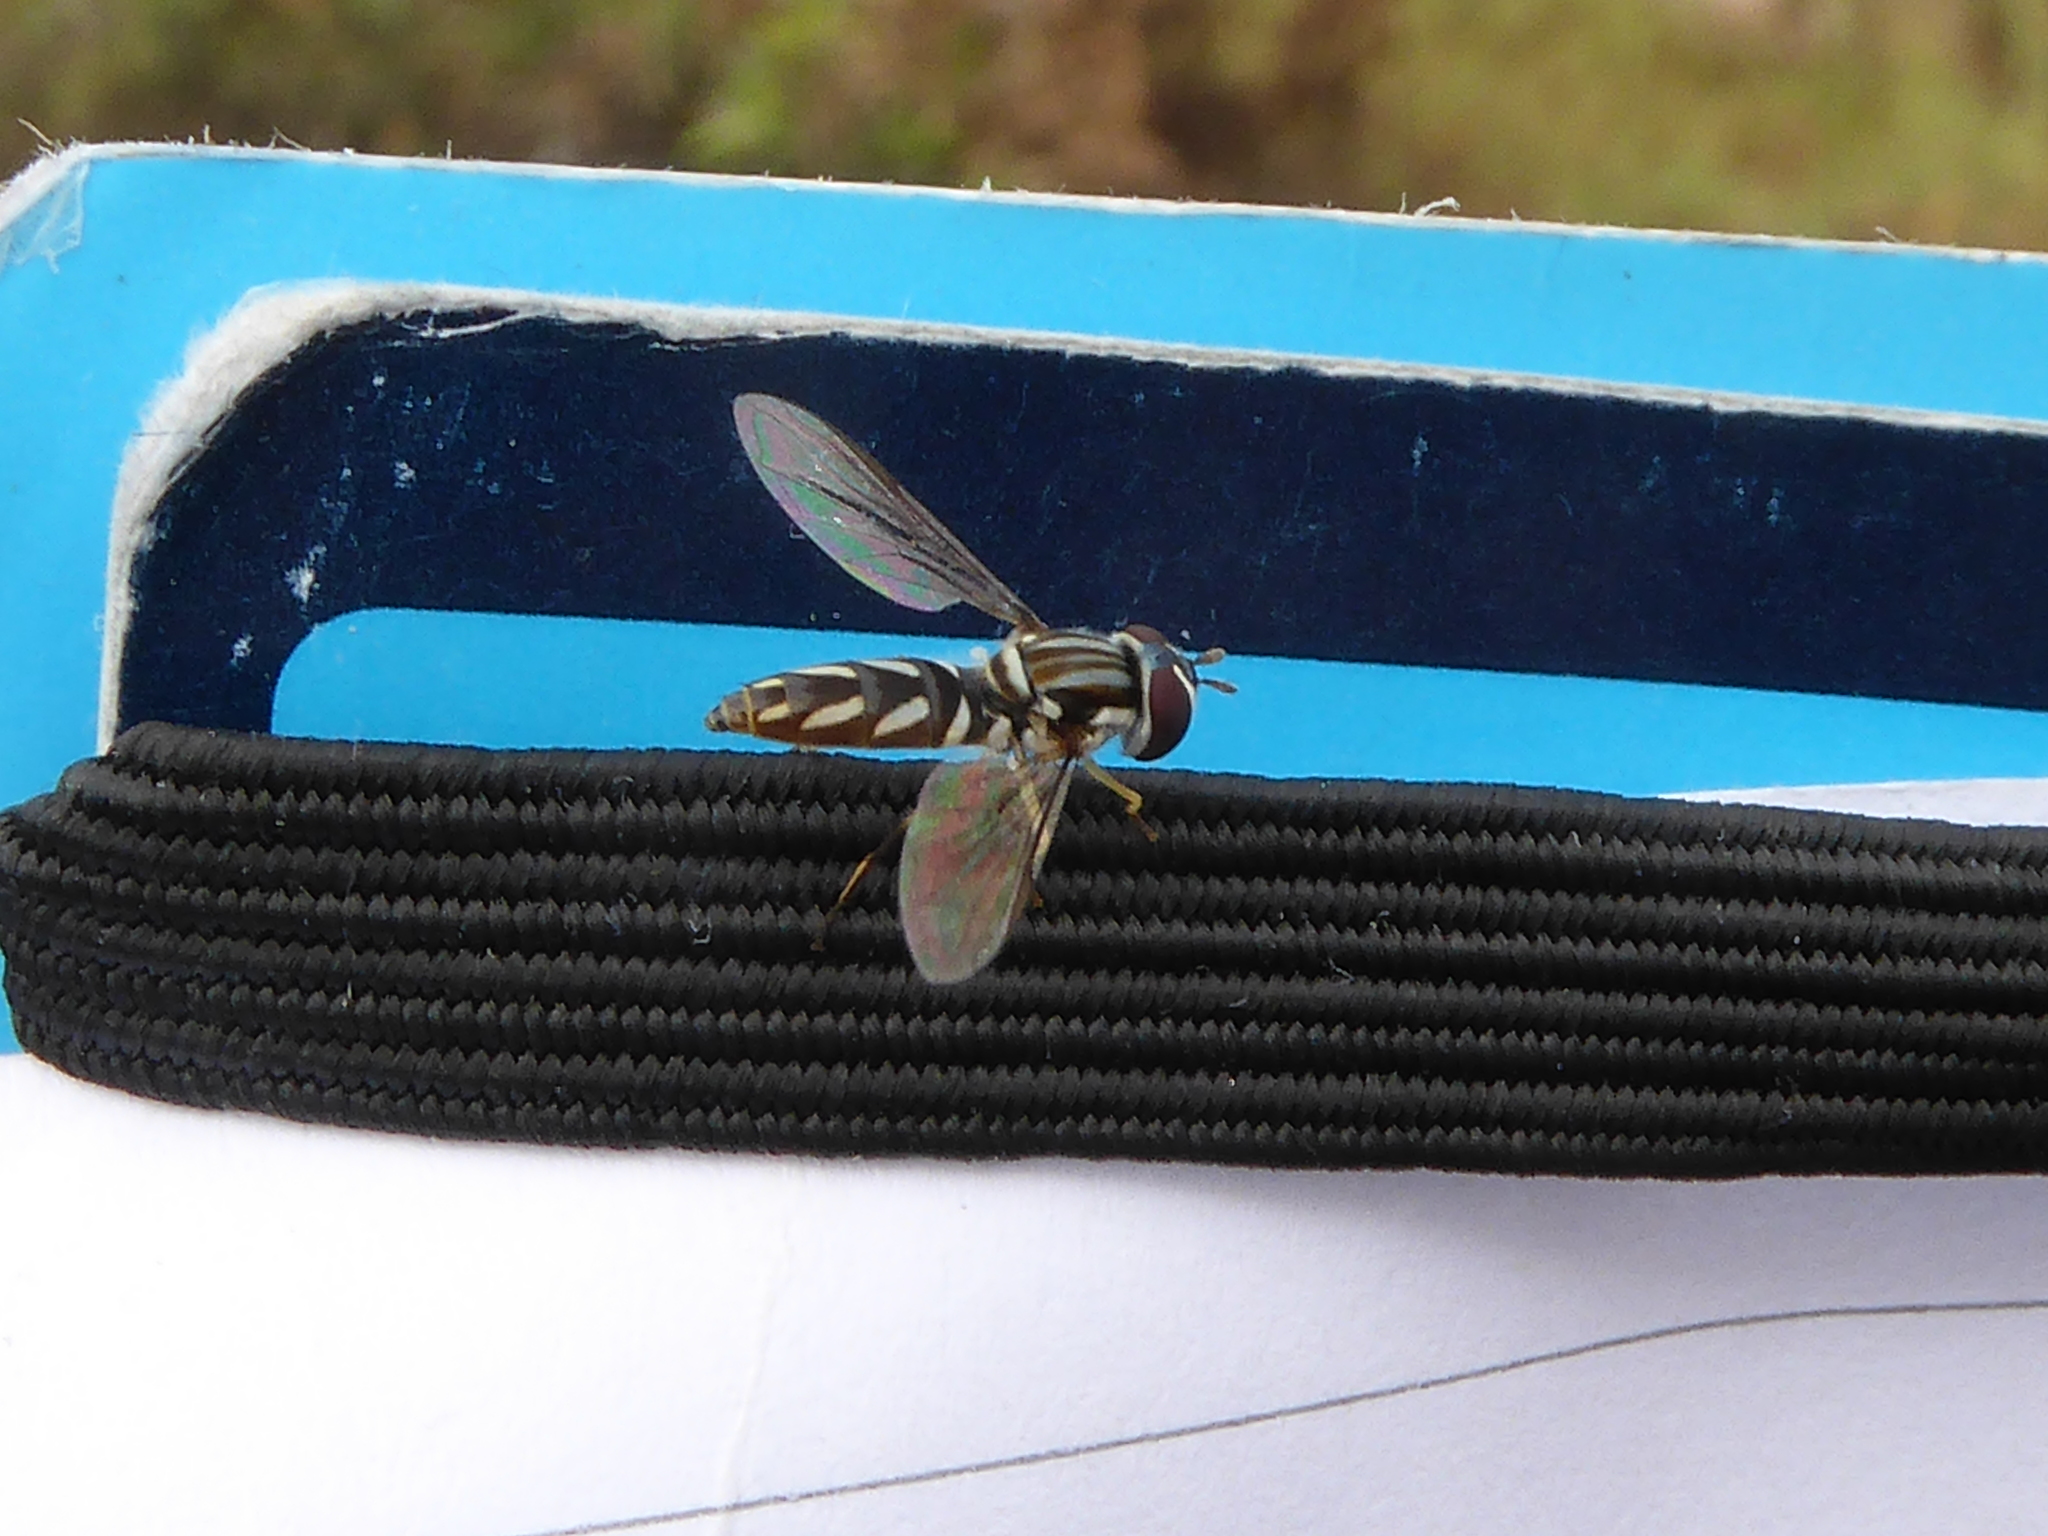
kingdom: Animalia
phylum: Arthropoda
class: Insecta
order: Diptera
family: Syrphidae
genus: Allograpta
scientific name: Allograpta piurana
